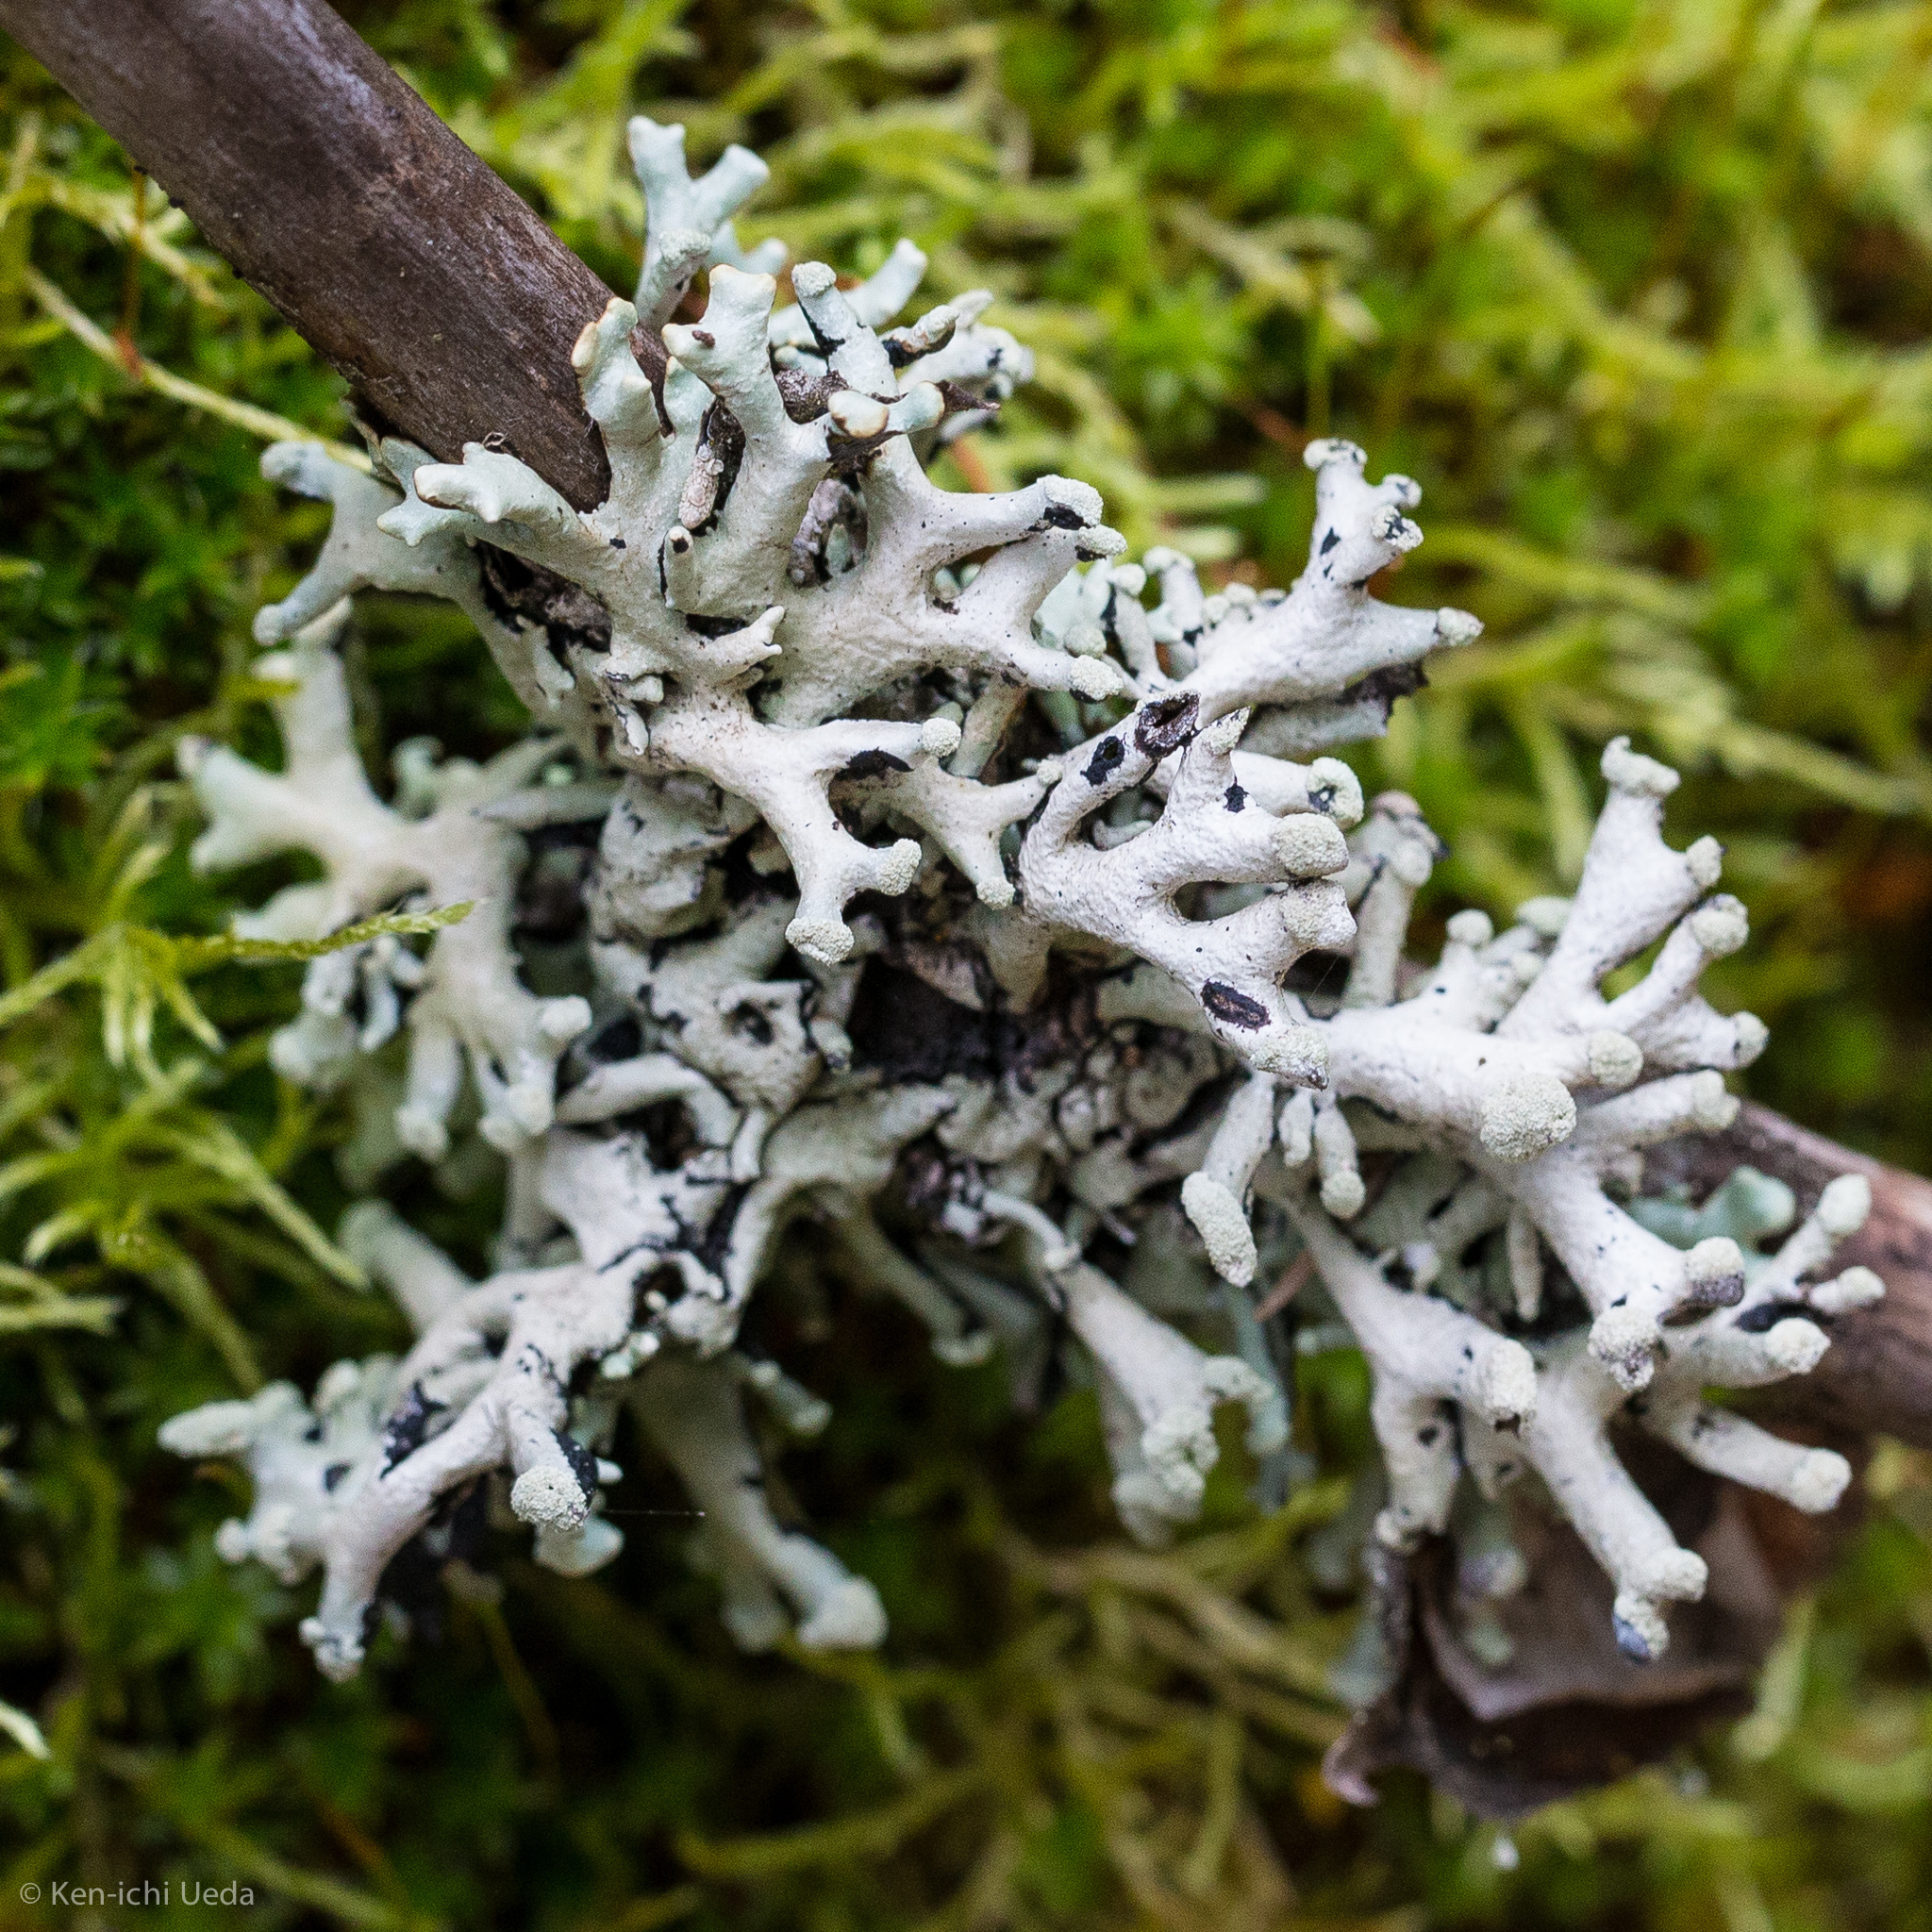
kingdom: Fungi
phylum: Ascomycota
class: Lecanoromycetes
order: Lecanorales
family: Parmeliaceae
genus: Hypogymnia
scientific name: Hypogymnia tubulosa
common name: Powder-headed tube lichen
